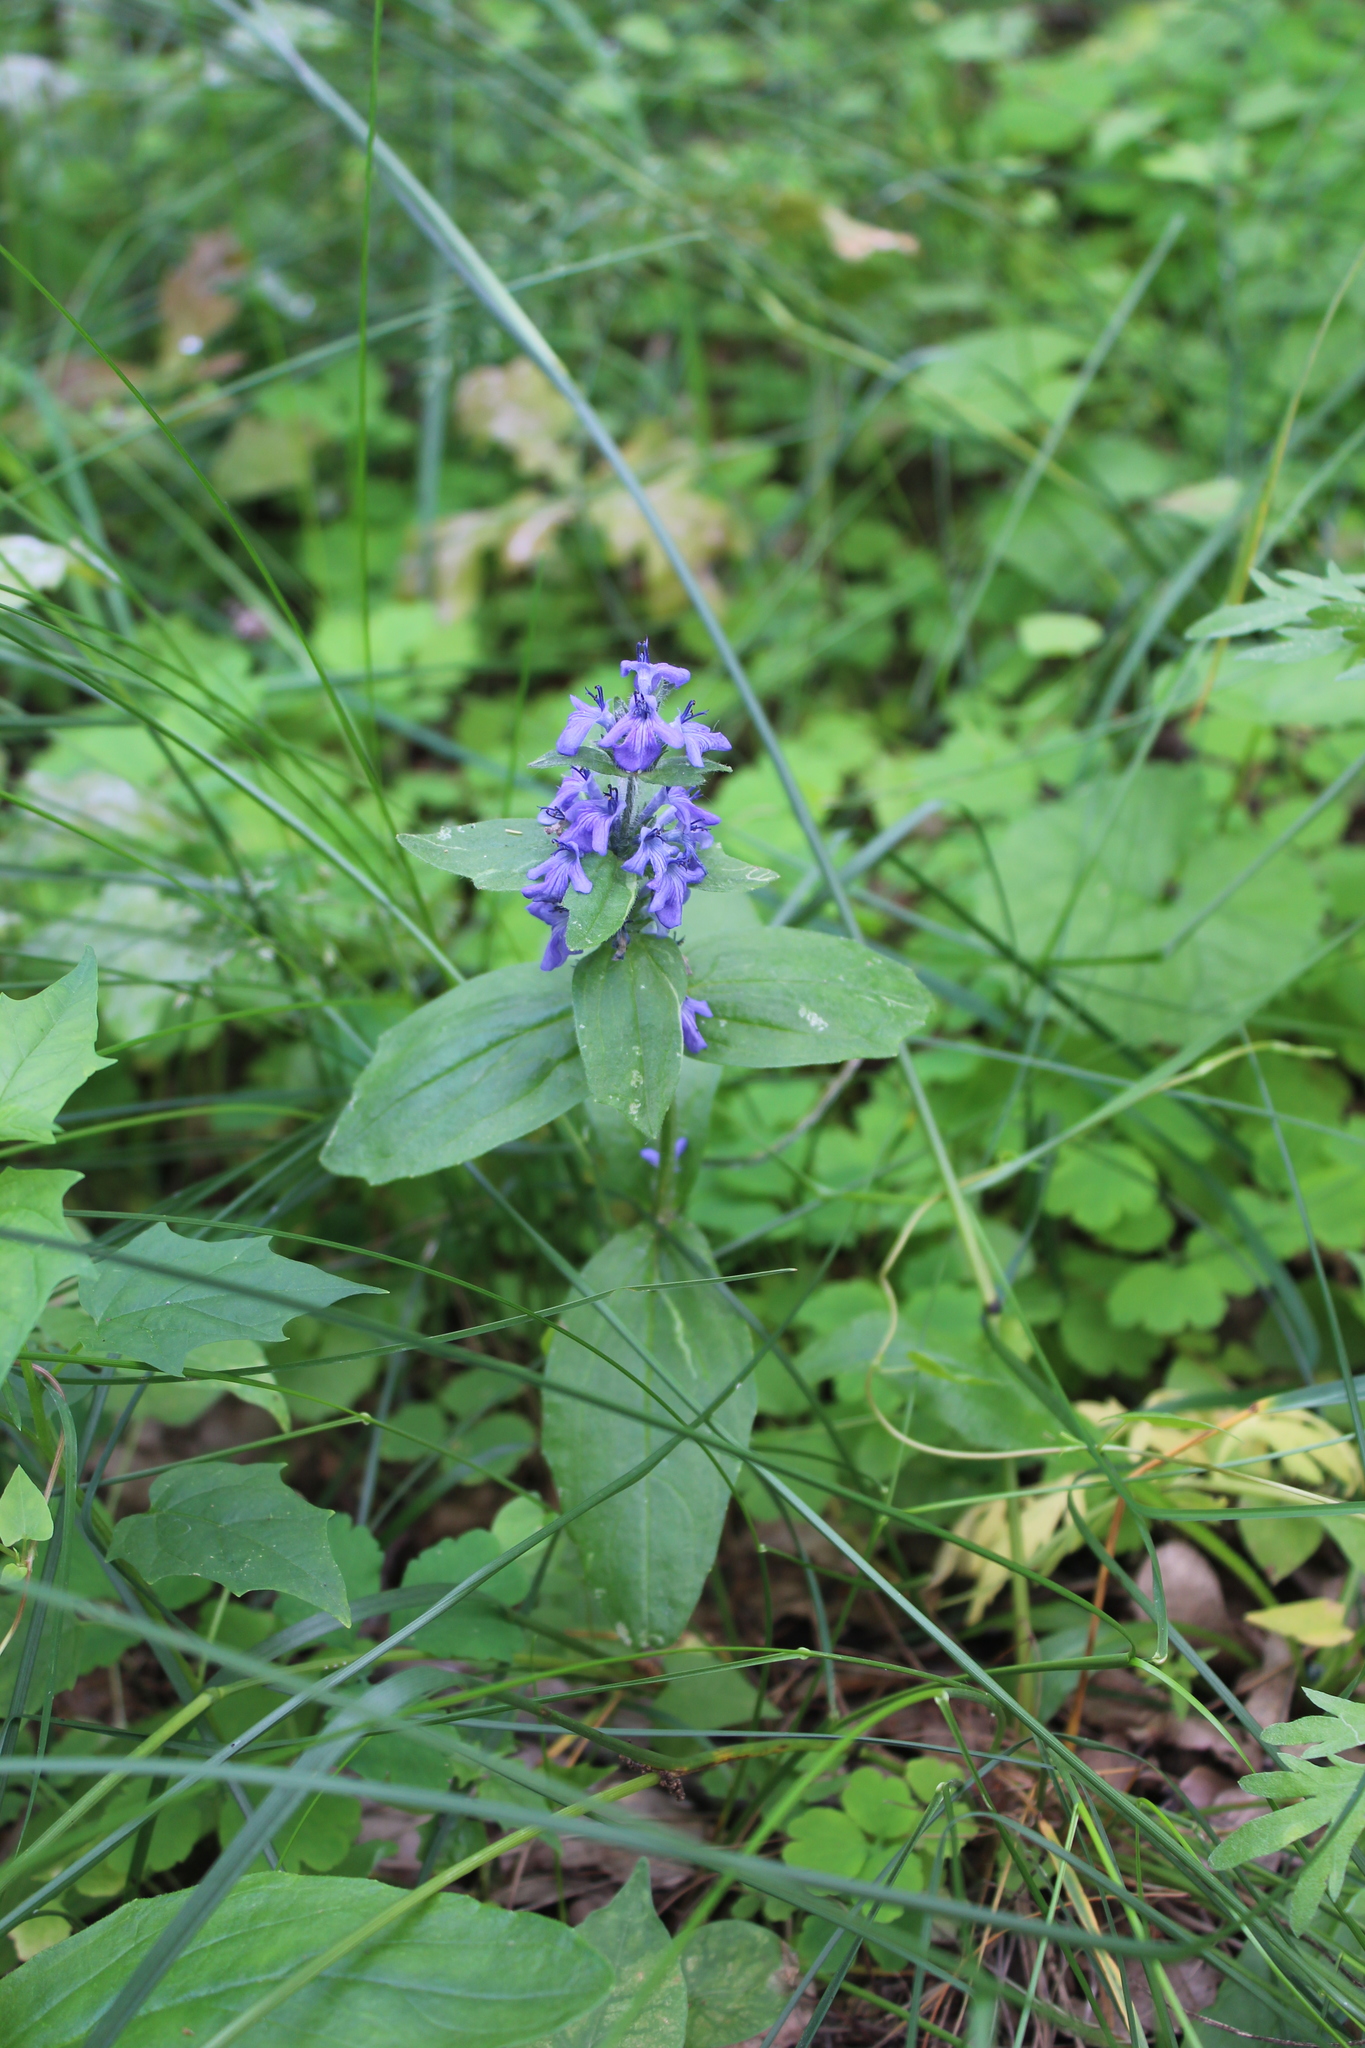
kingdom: Plantae
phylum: Tracheophyta
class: Magnoliopsida
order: Lamiales
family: Lamiaceae
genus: Ajuga
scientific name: Ajuga genevensis
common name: Blue bugle
